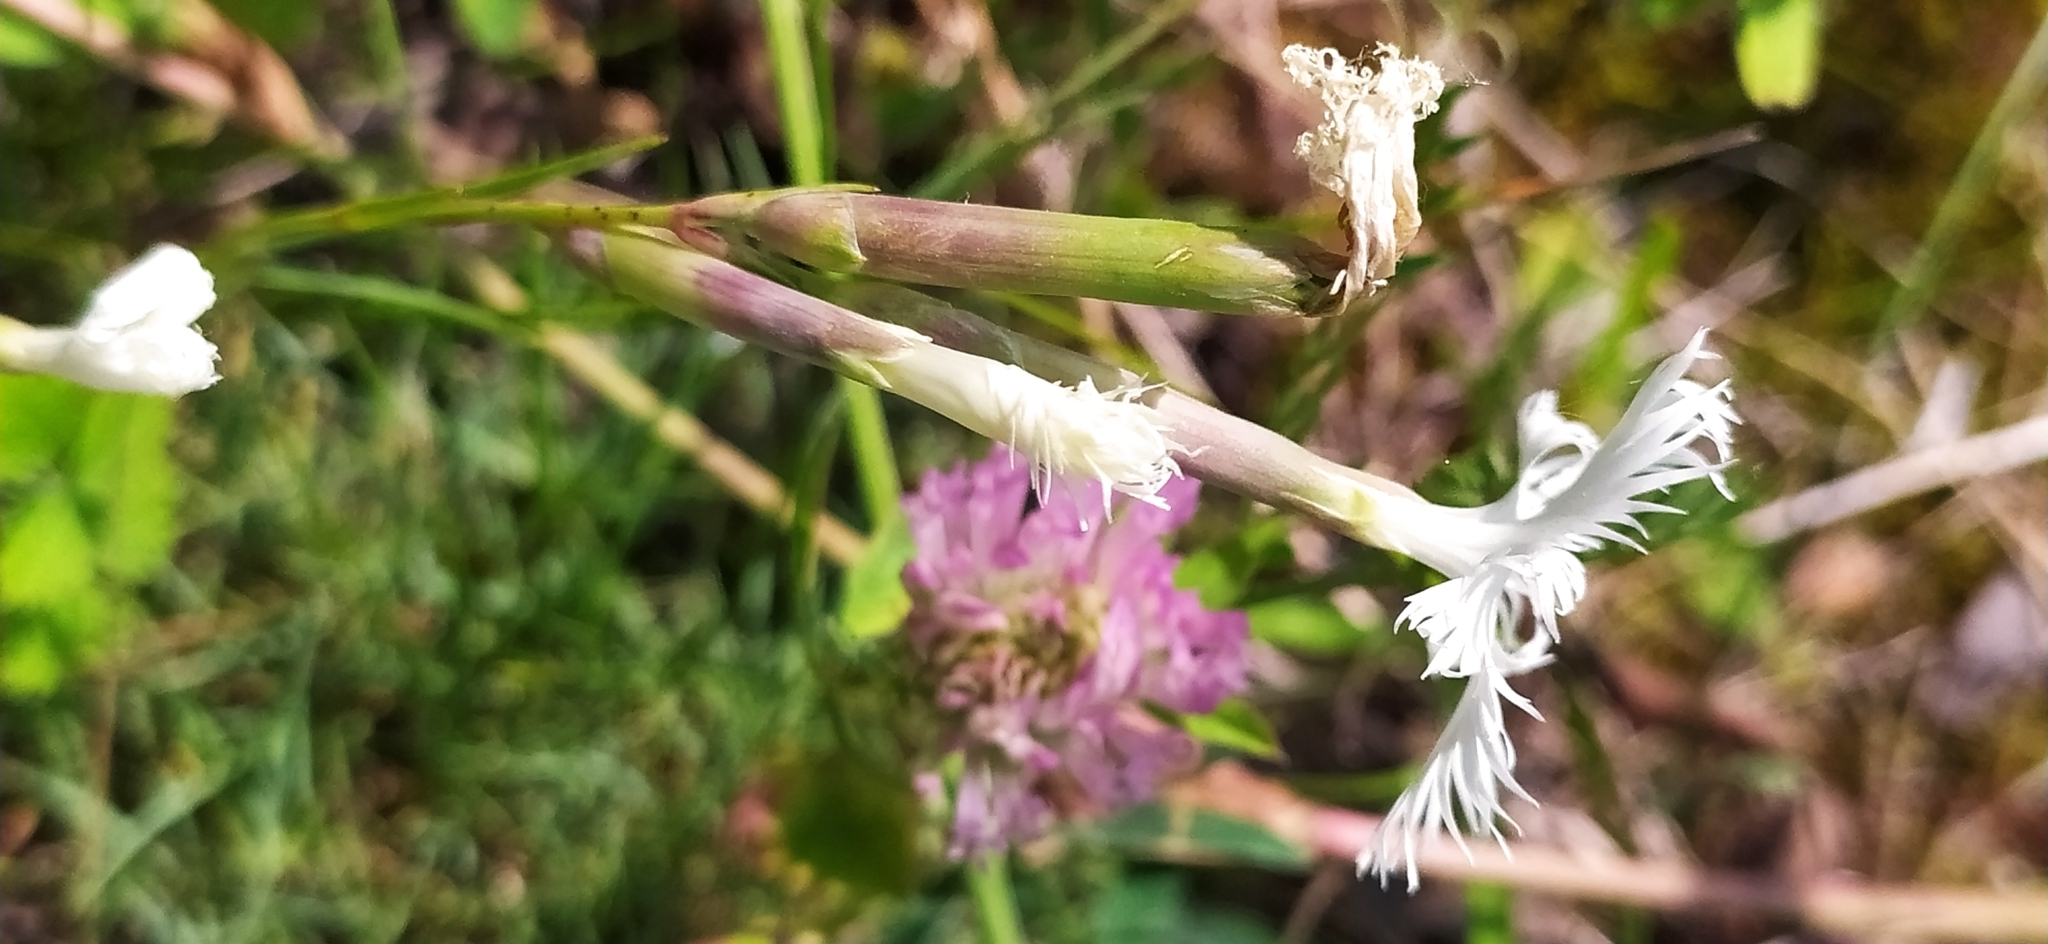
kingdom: Plantae
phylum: Tracheophyta
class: Magnoliopsida
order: Caryophyllales
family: Caryophyllaceae
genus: Dianthus
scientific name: Dianthus acicularis
